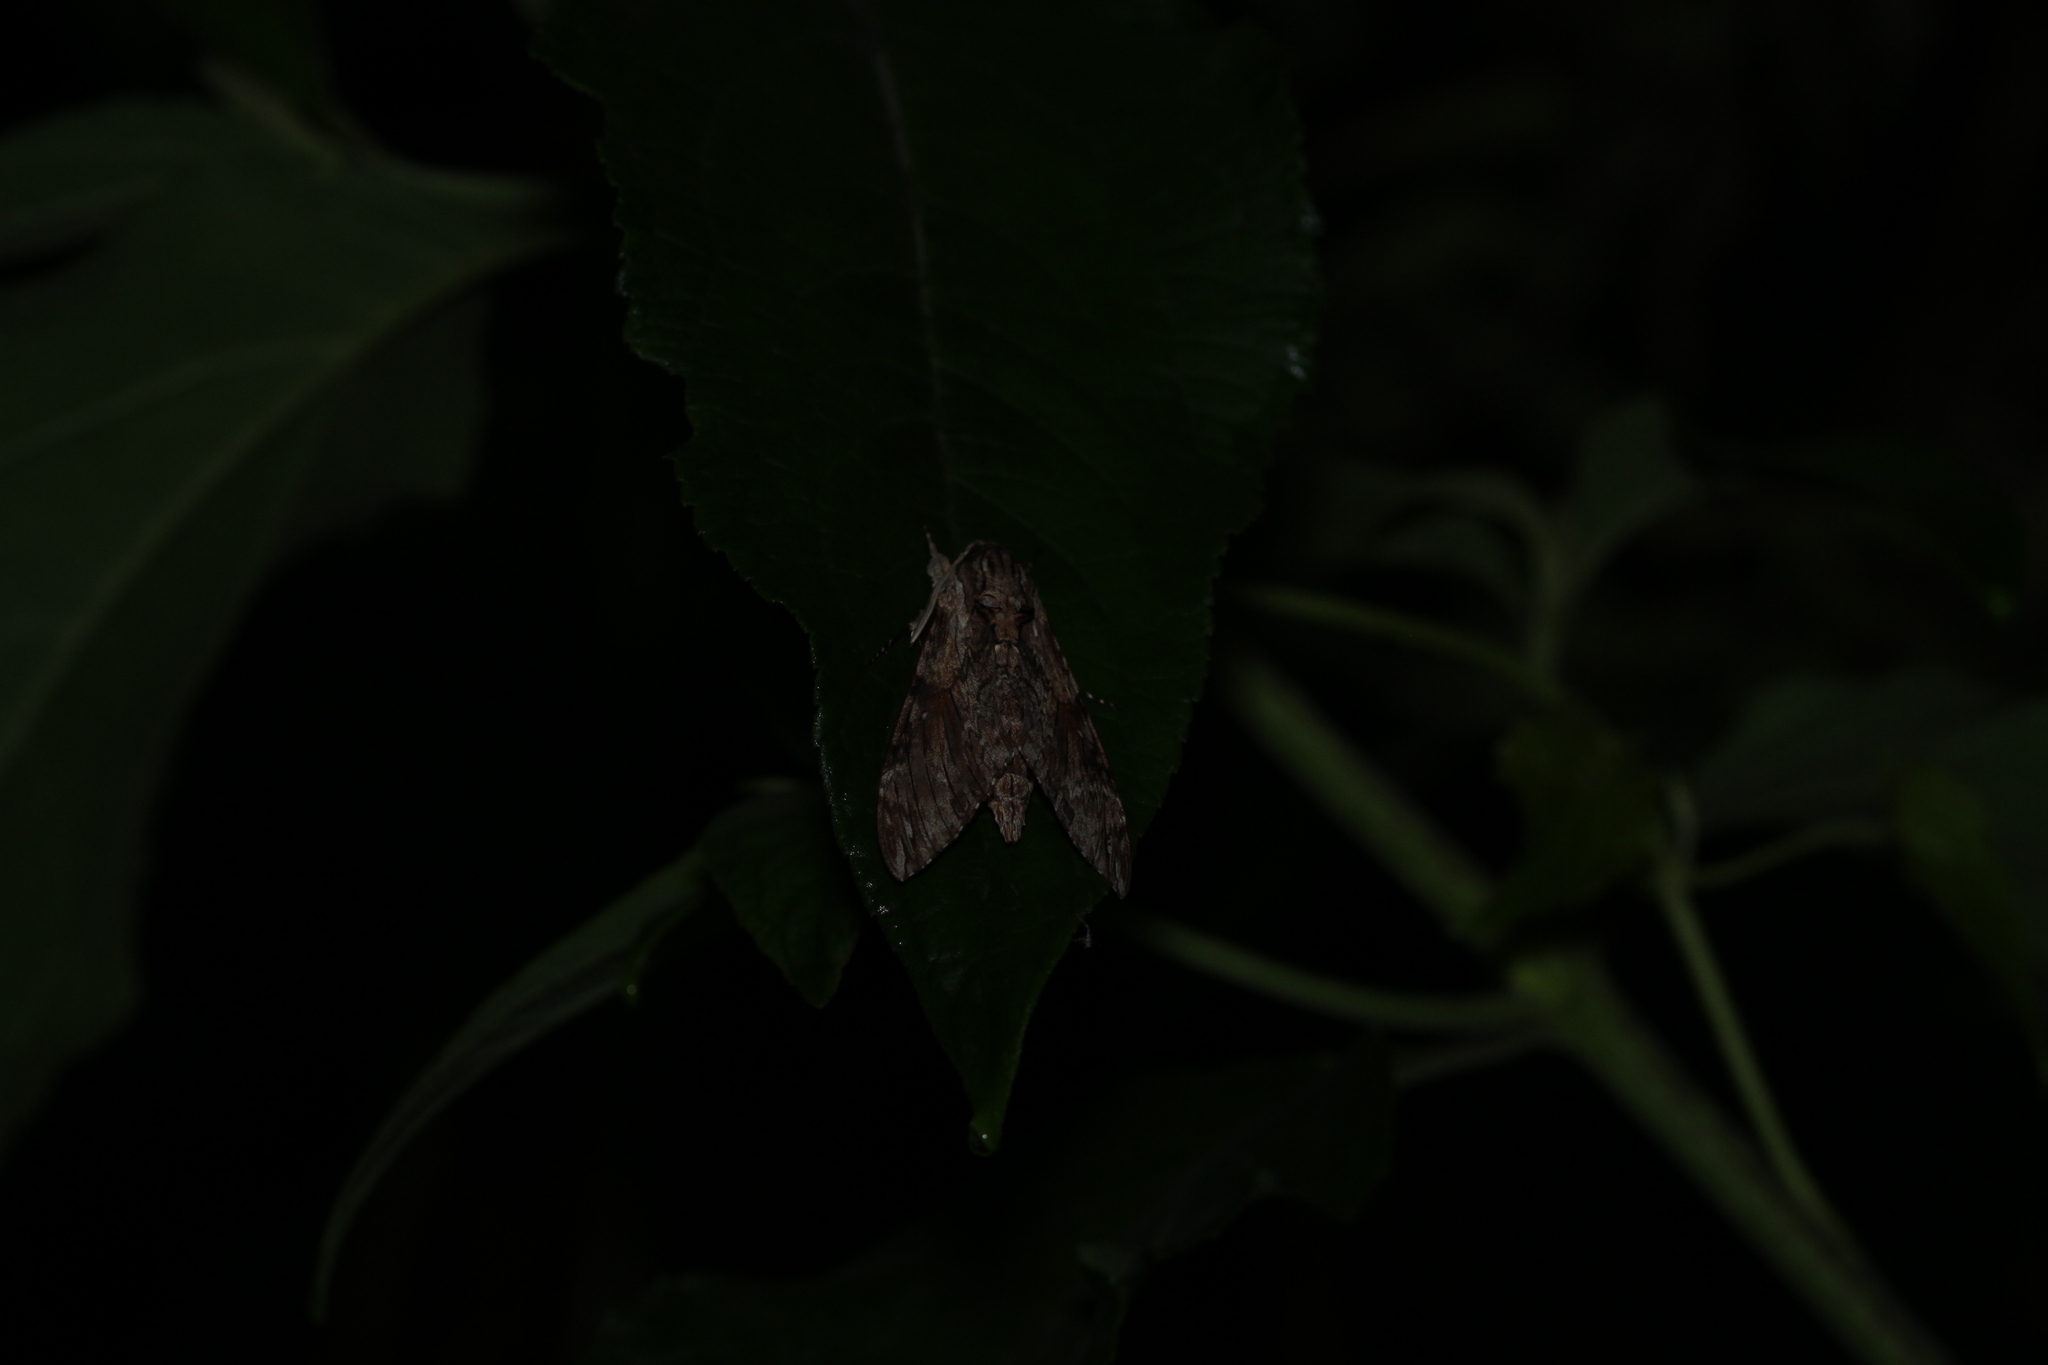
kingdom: Animalia
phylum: Arthropoda
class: Insecta
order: Lepidoptera
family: Sphingidae
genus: Agrius
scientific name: Agrius convolvuli
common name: Convolvulus hawkmoth
